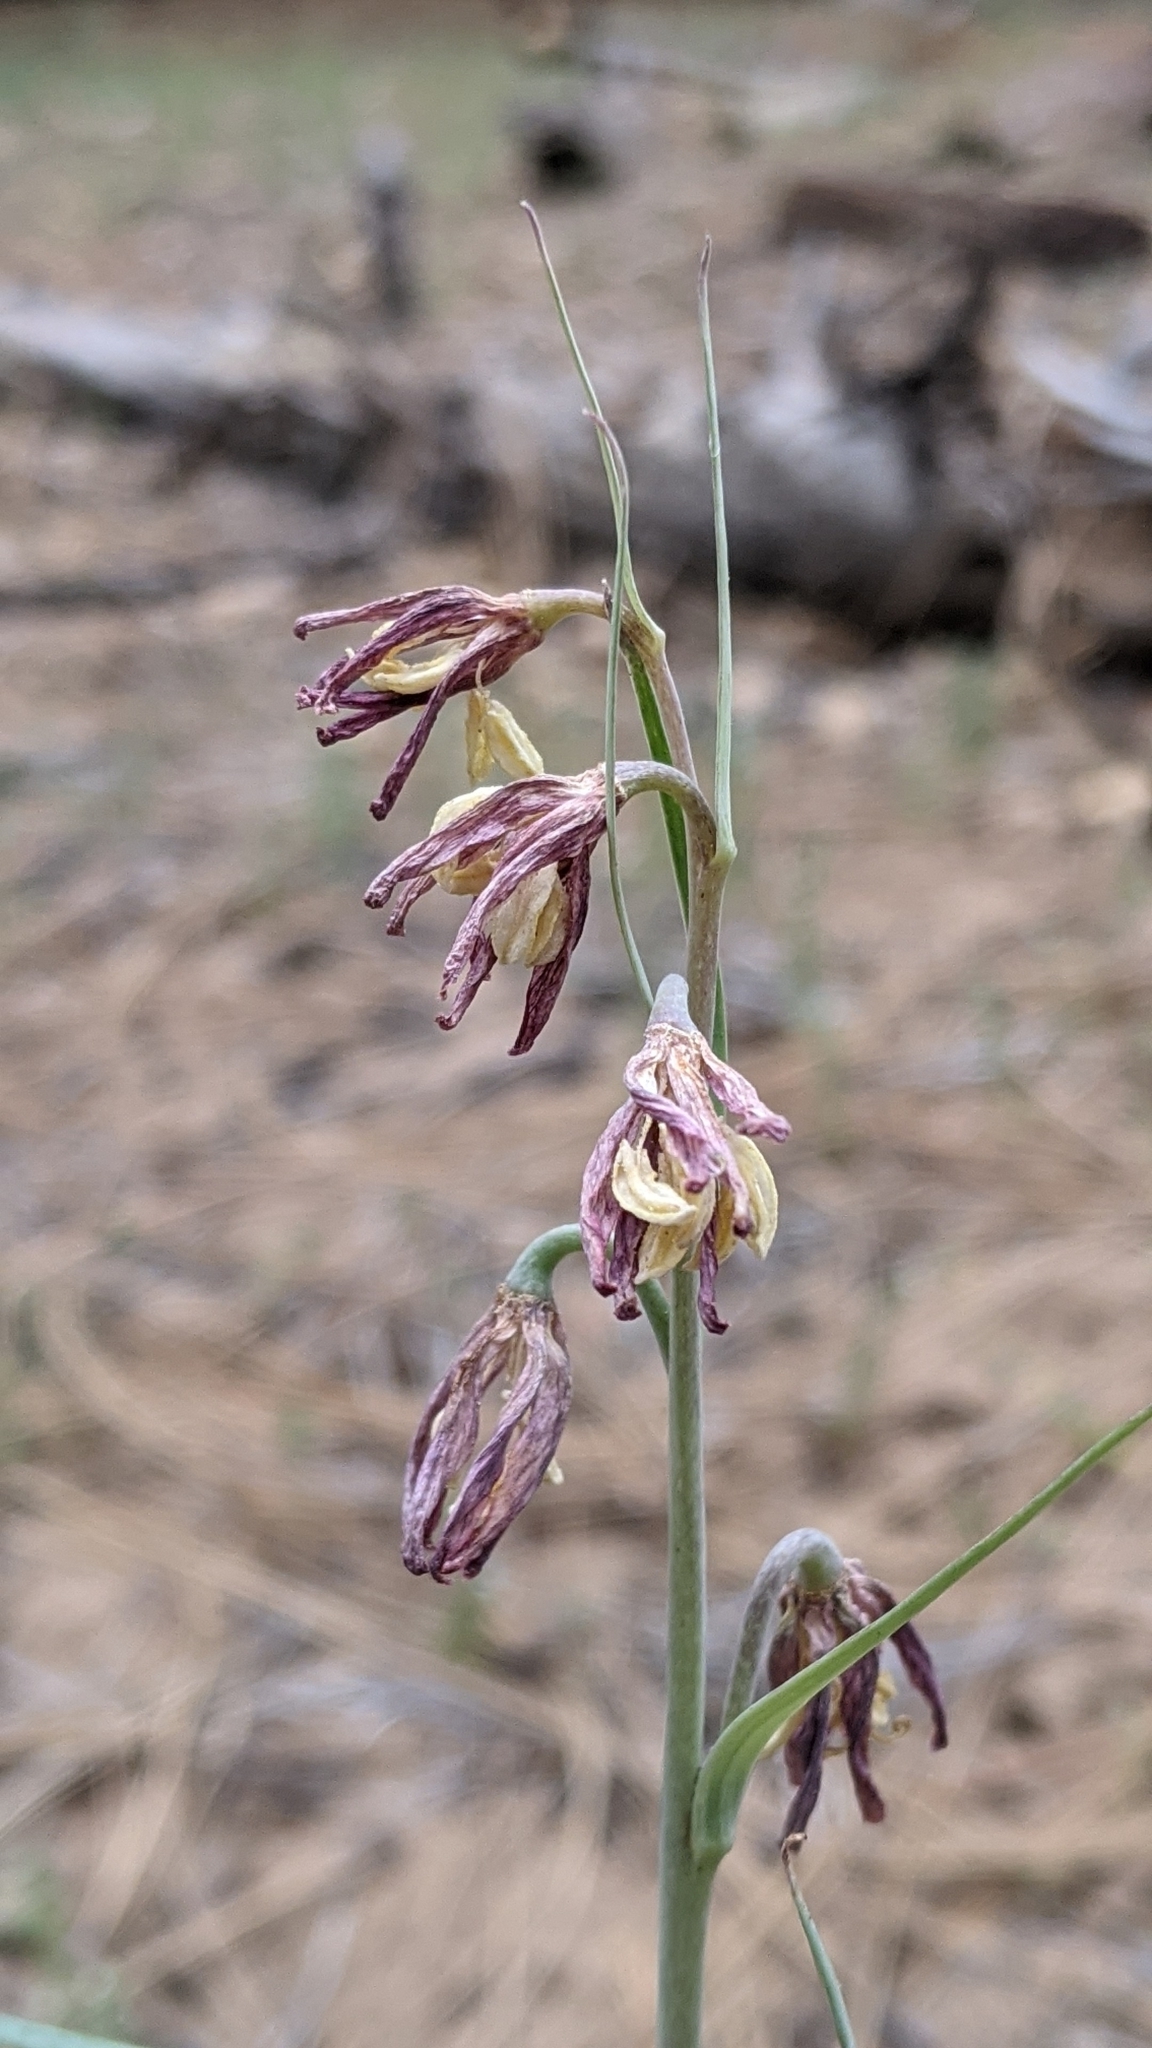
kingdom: Plantae
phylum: Tracheophyta
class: Liliopsida
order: Liliales
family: Liliaceae
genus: Fritillaria
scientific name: Fritillaria micrantha
